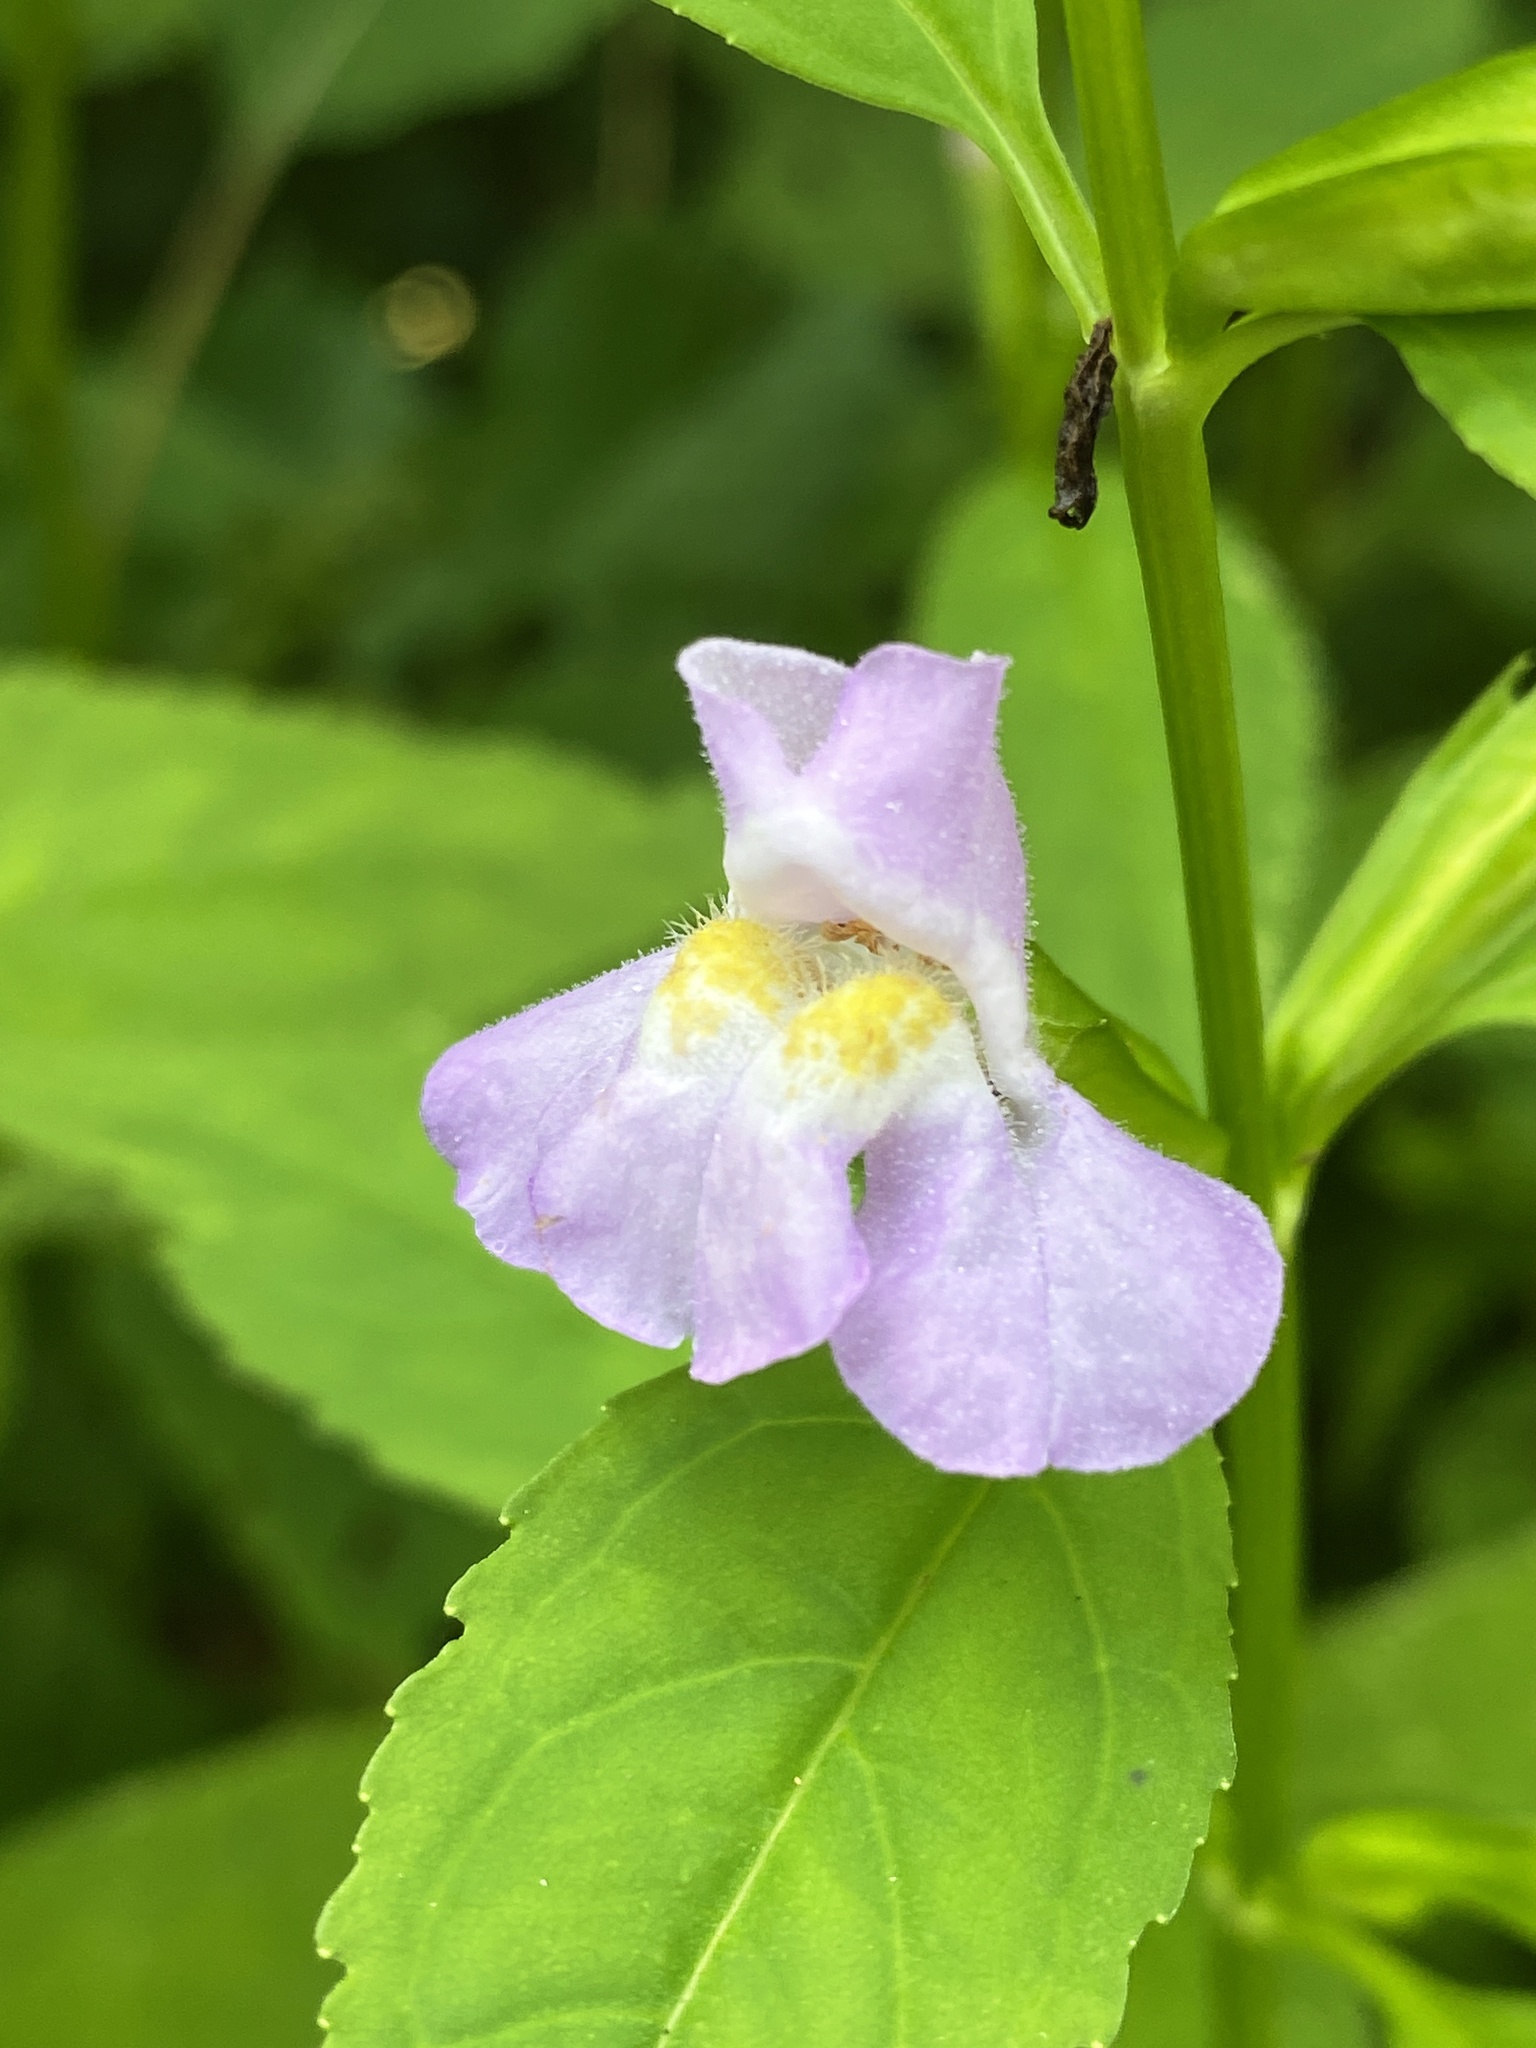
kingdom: Plantae
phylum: Tracheophyta
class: Magnoliopsida
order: Lamiales
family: Phrymaceae
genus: Mimulus
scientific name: Mimulus alatus
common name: Sharp-wing monkey-flower
